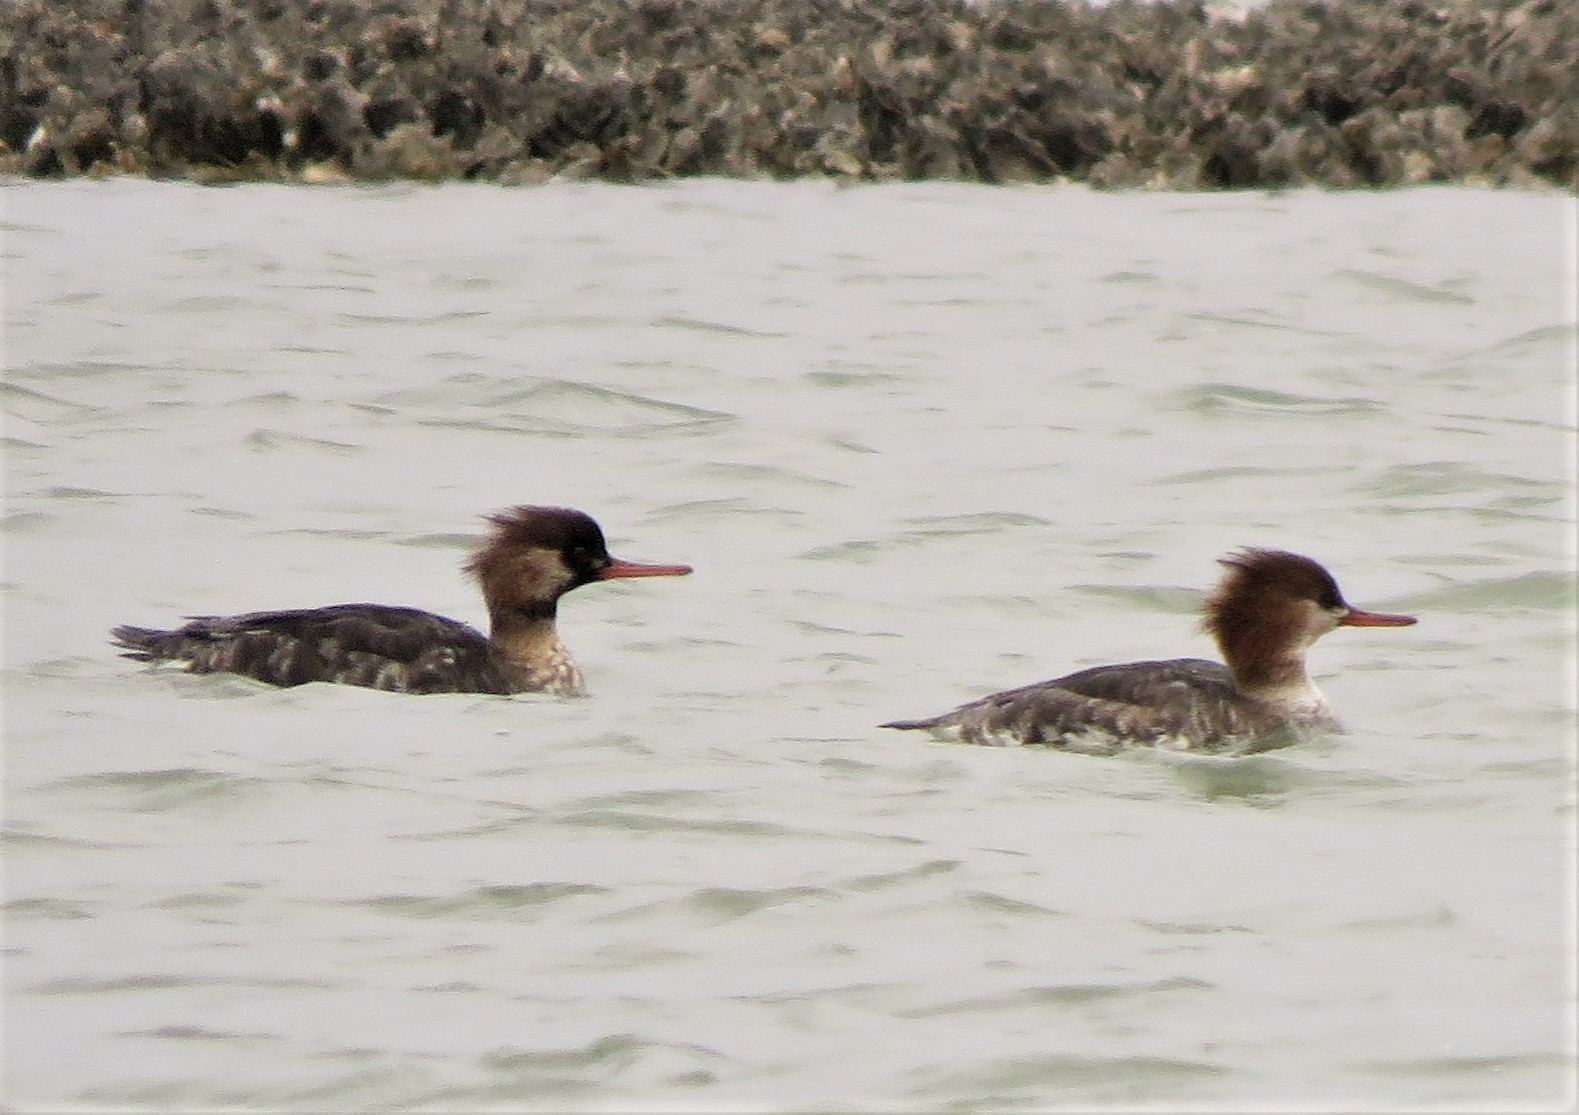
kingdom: Animalia
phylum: Chordata
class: Aves
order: Anseriformes
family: Anatidae
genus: Mergus
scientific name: Mergus serrator
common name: Red-breasted merganser
